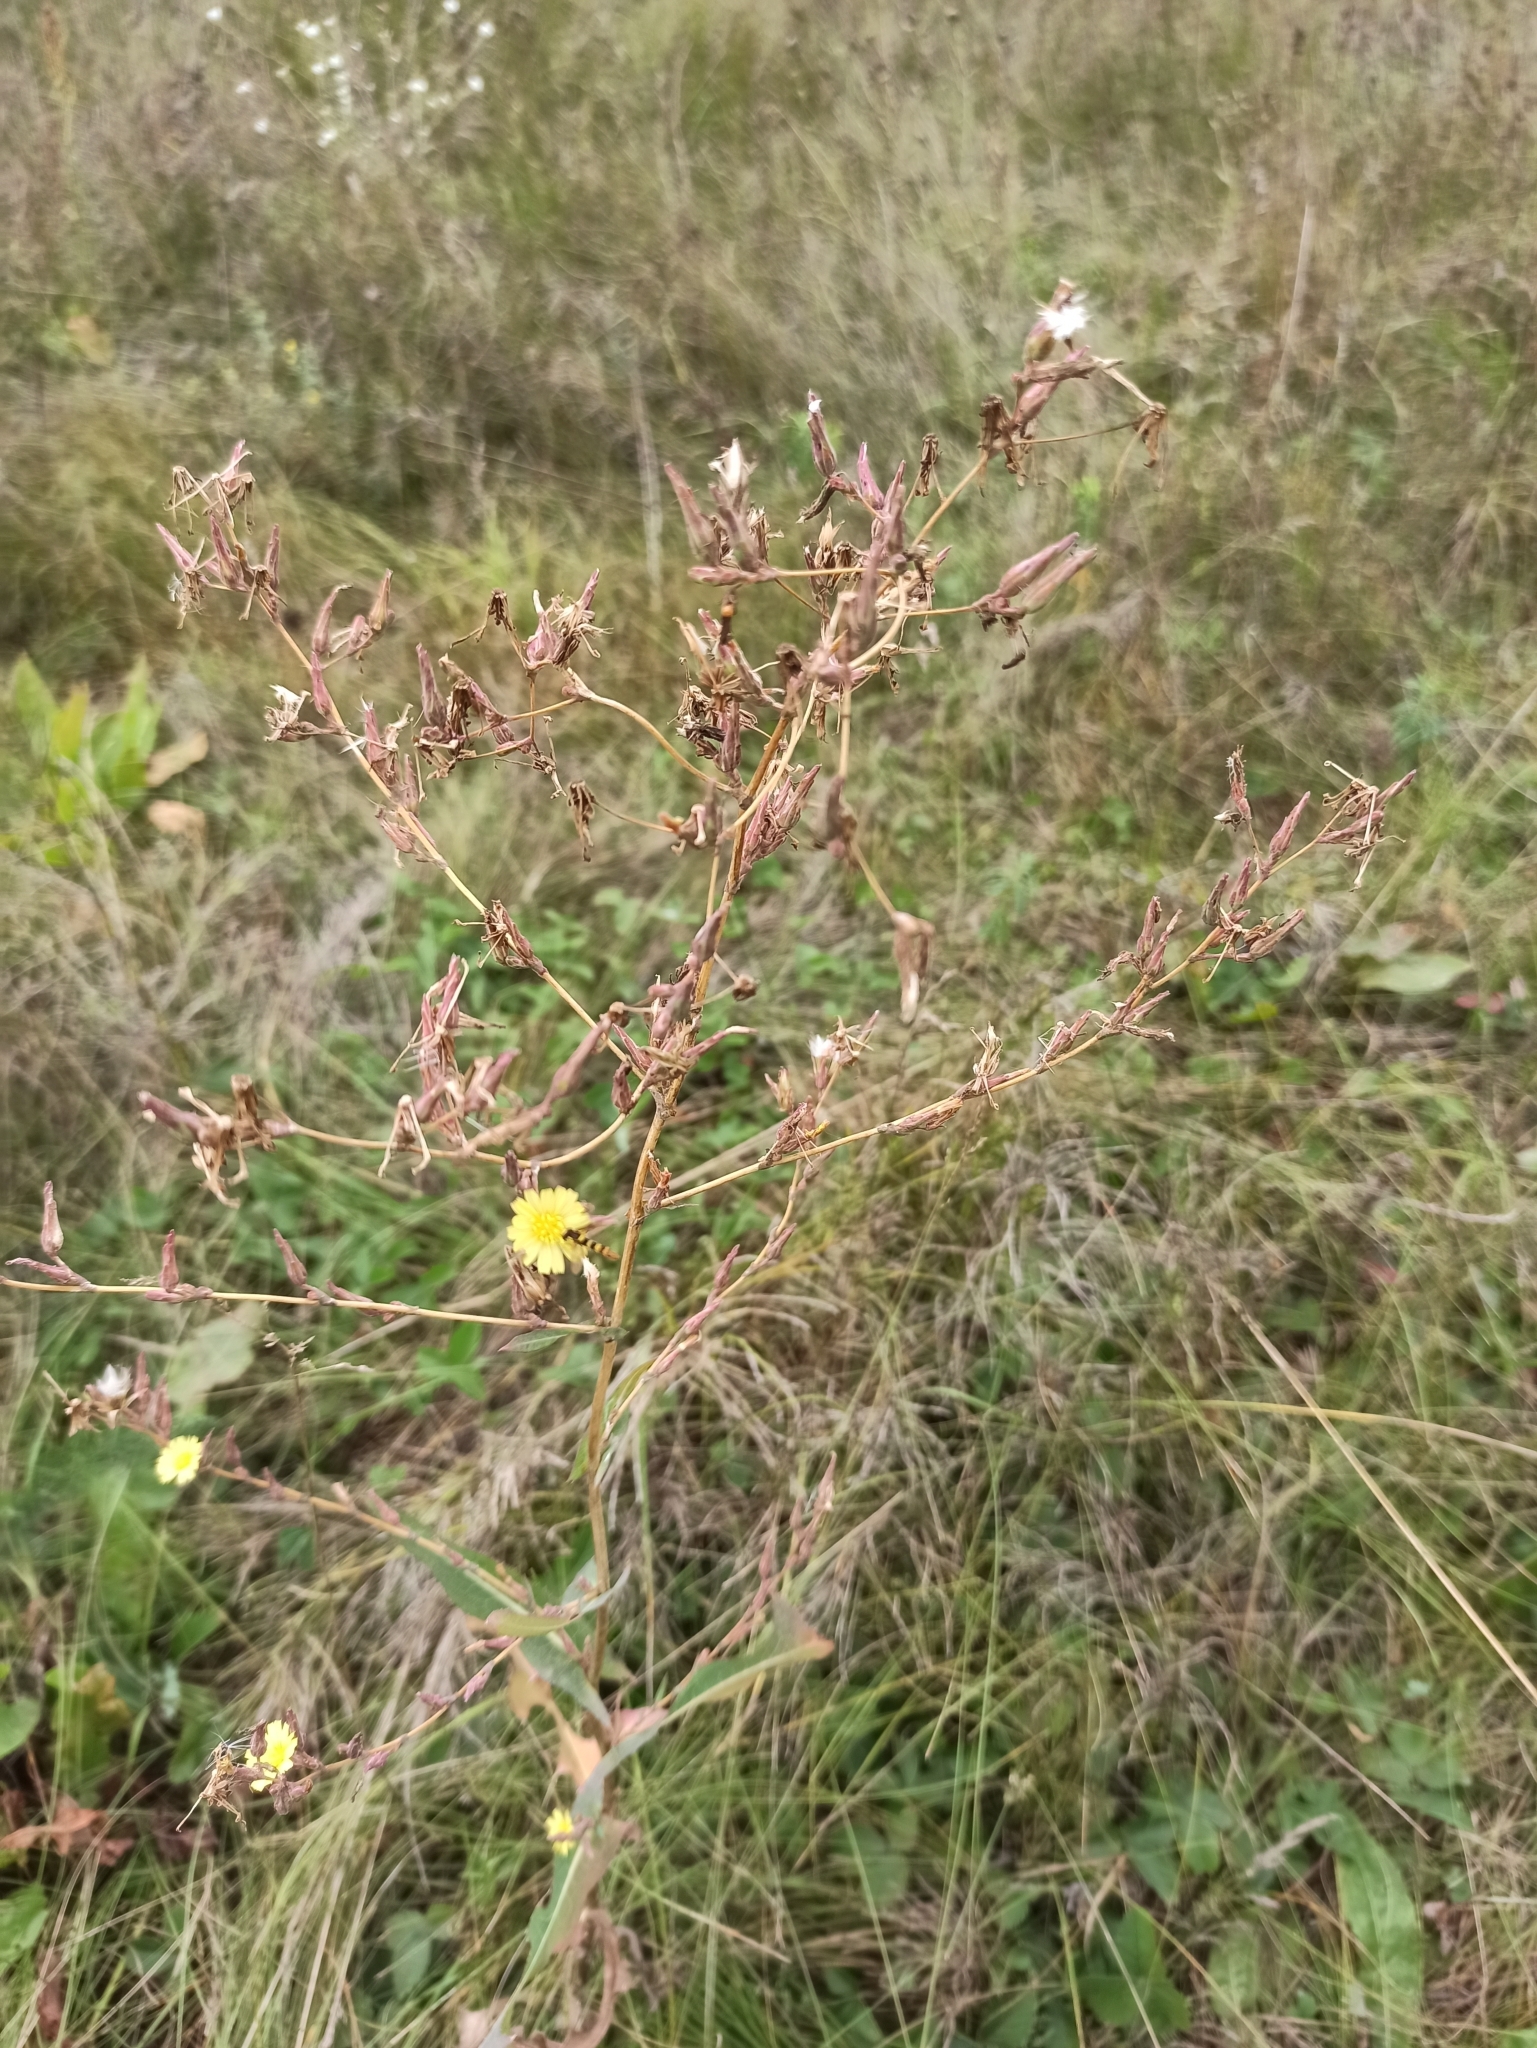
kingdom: Plantae
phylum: Tracheophyta
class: Magnoliopsida
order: Asterales
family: Asteraceae
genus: Lactuca
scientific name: Lactuca serriola
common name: Prickly lettuce
